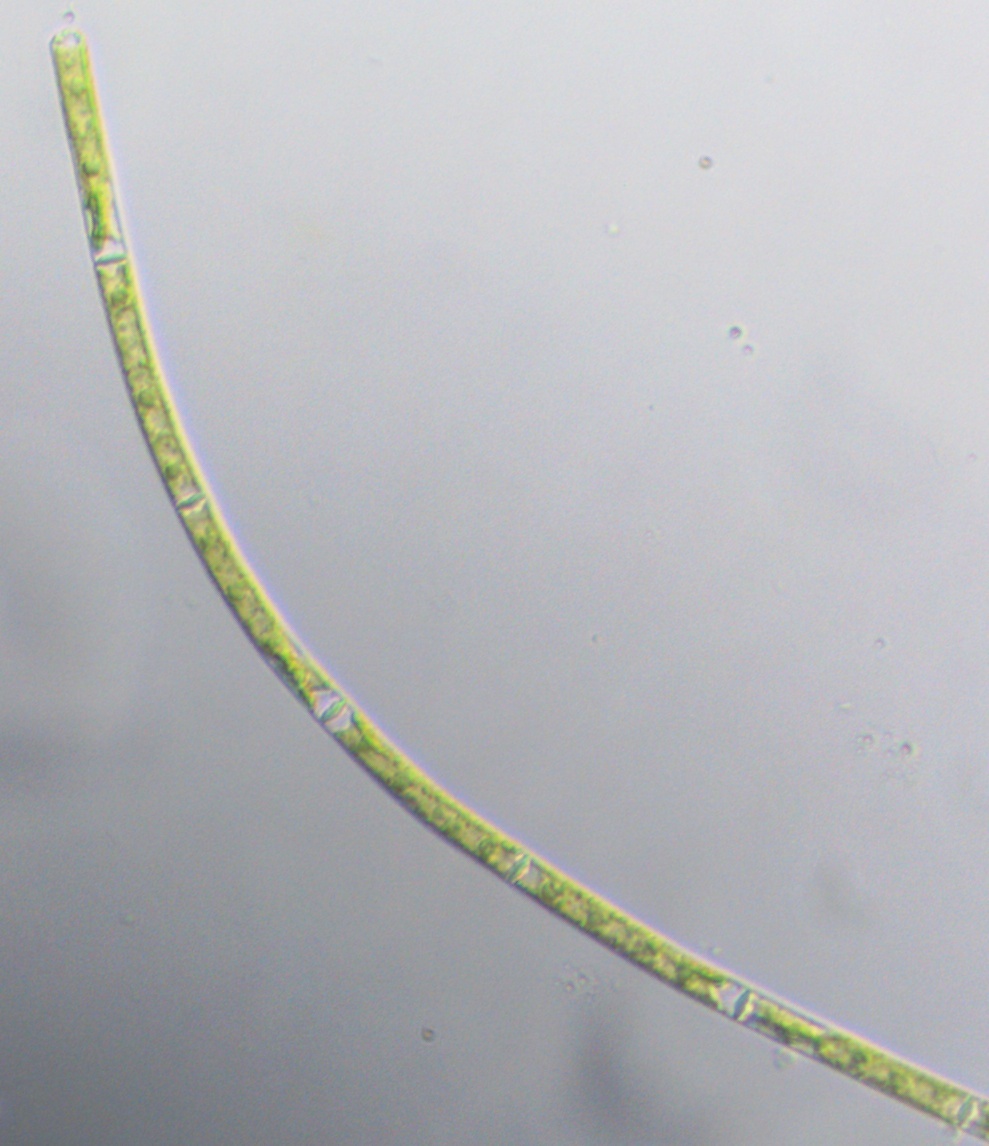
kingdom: Plantae
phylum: Charophyta
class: Zygnematophyceae
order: Zygnematales
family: Zygnemataceae
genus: Mougeotia
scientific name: Mougeotia
